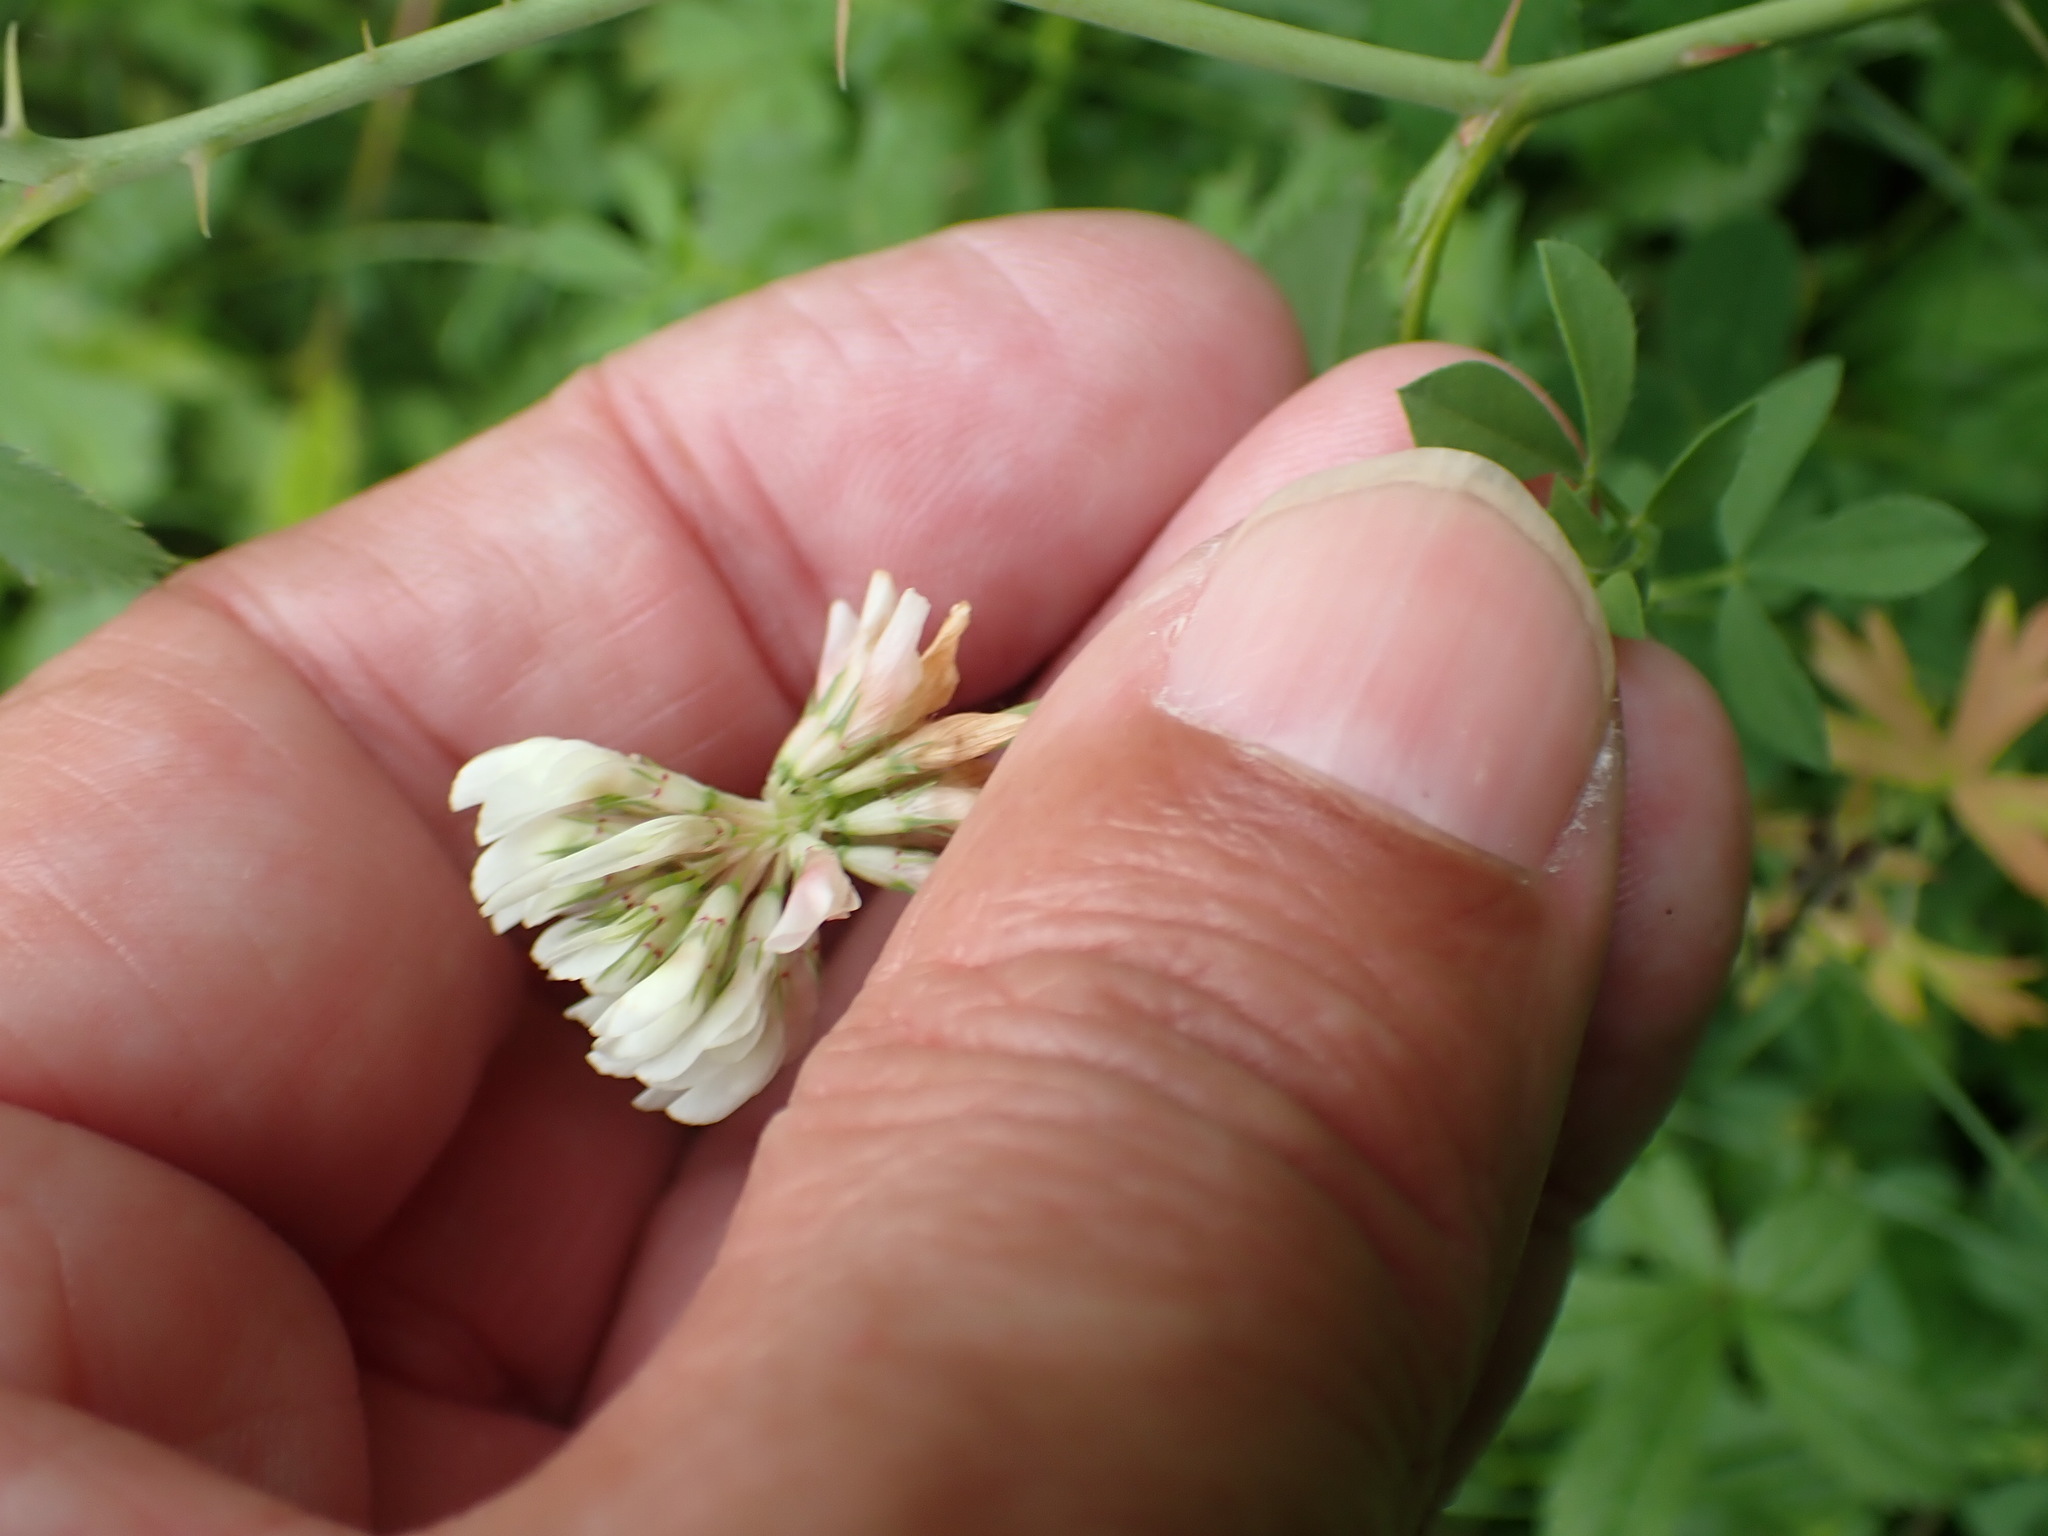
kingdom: Plantae
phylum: Tracheophyta
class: Magnoliopsida
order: Fabales
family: Fabaceae
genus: Trifolium
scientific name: Trifolium repens
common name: White clover
